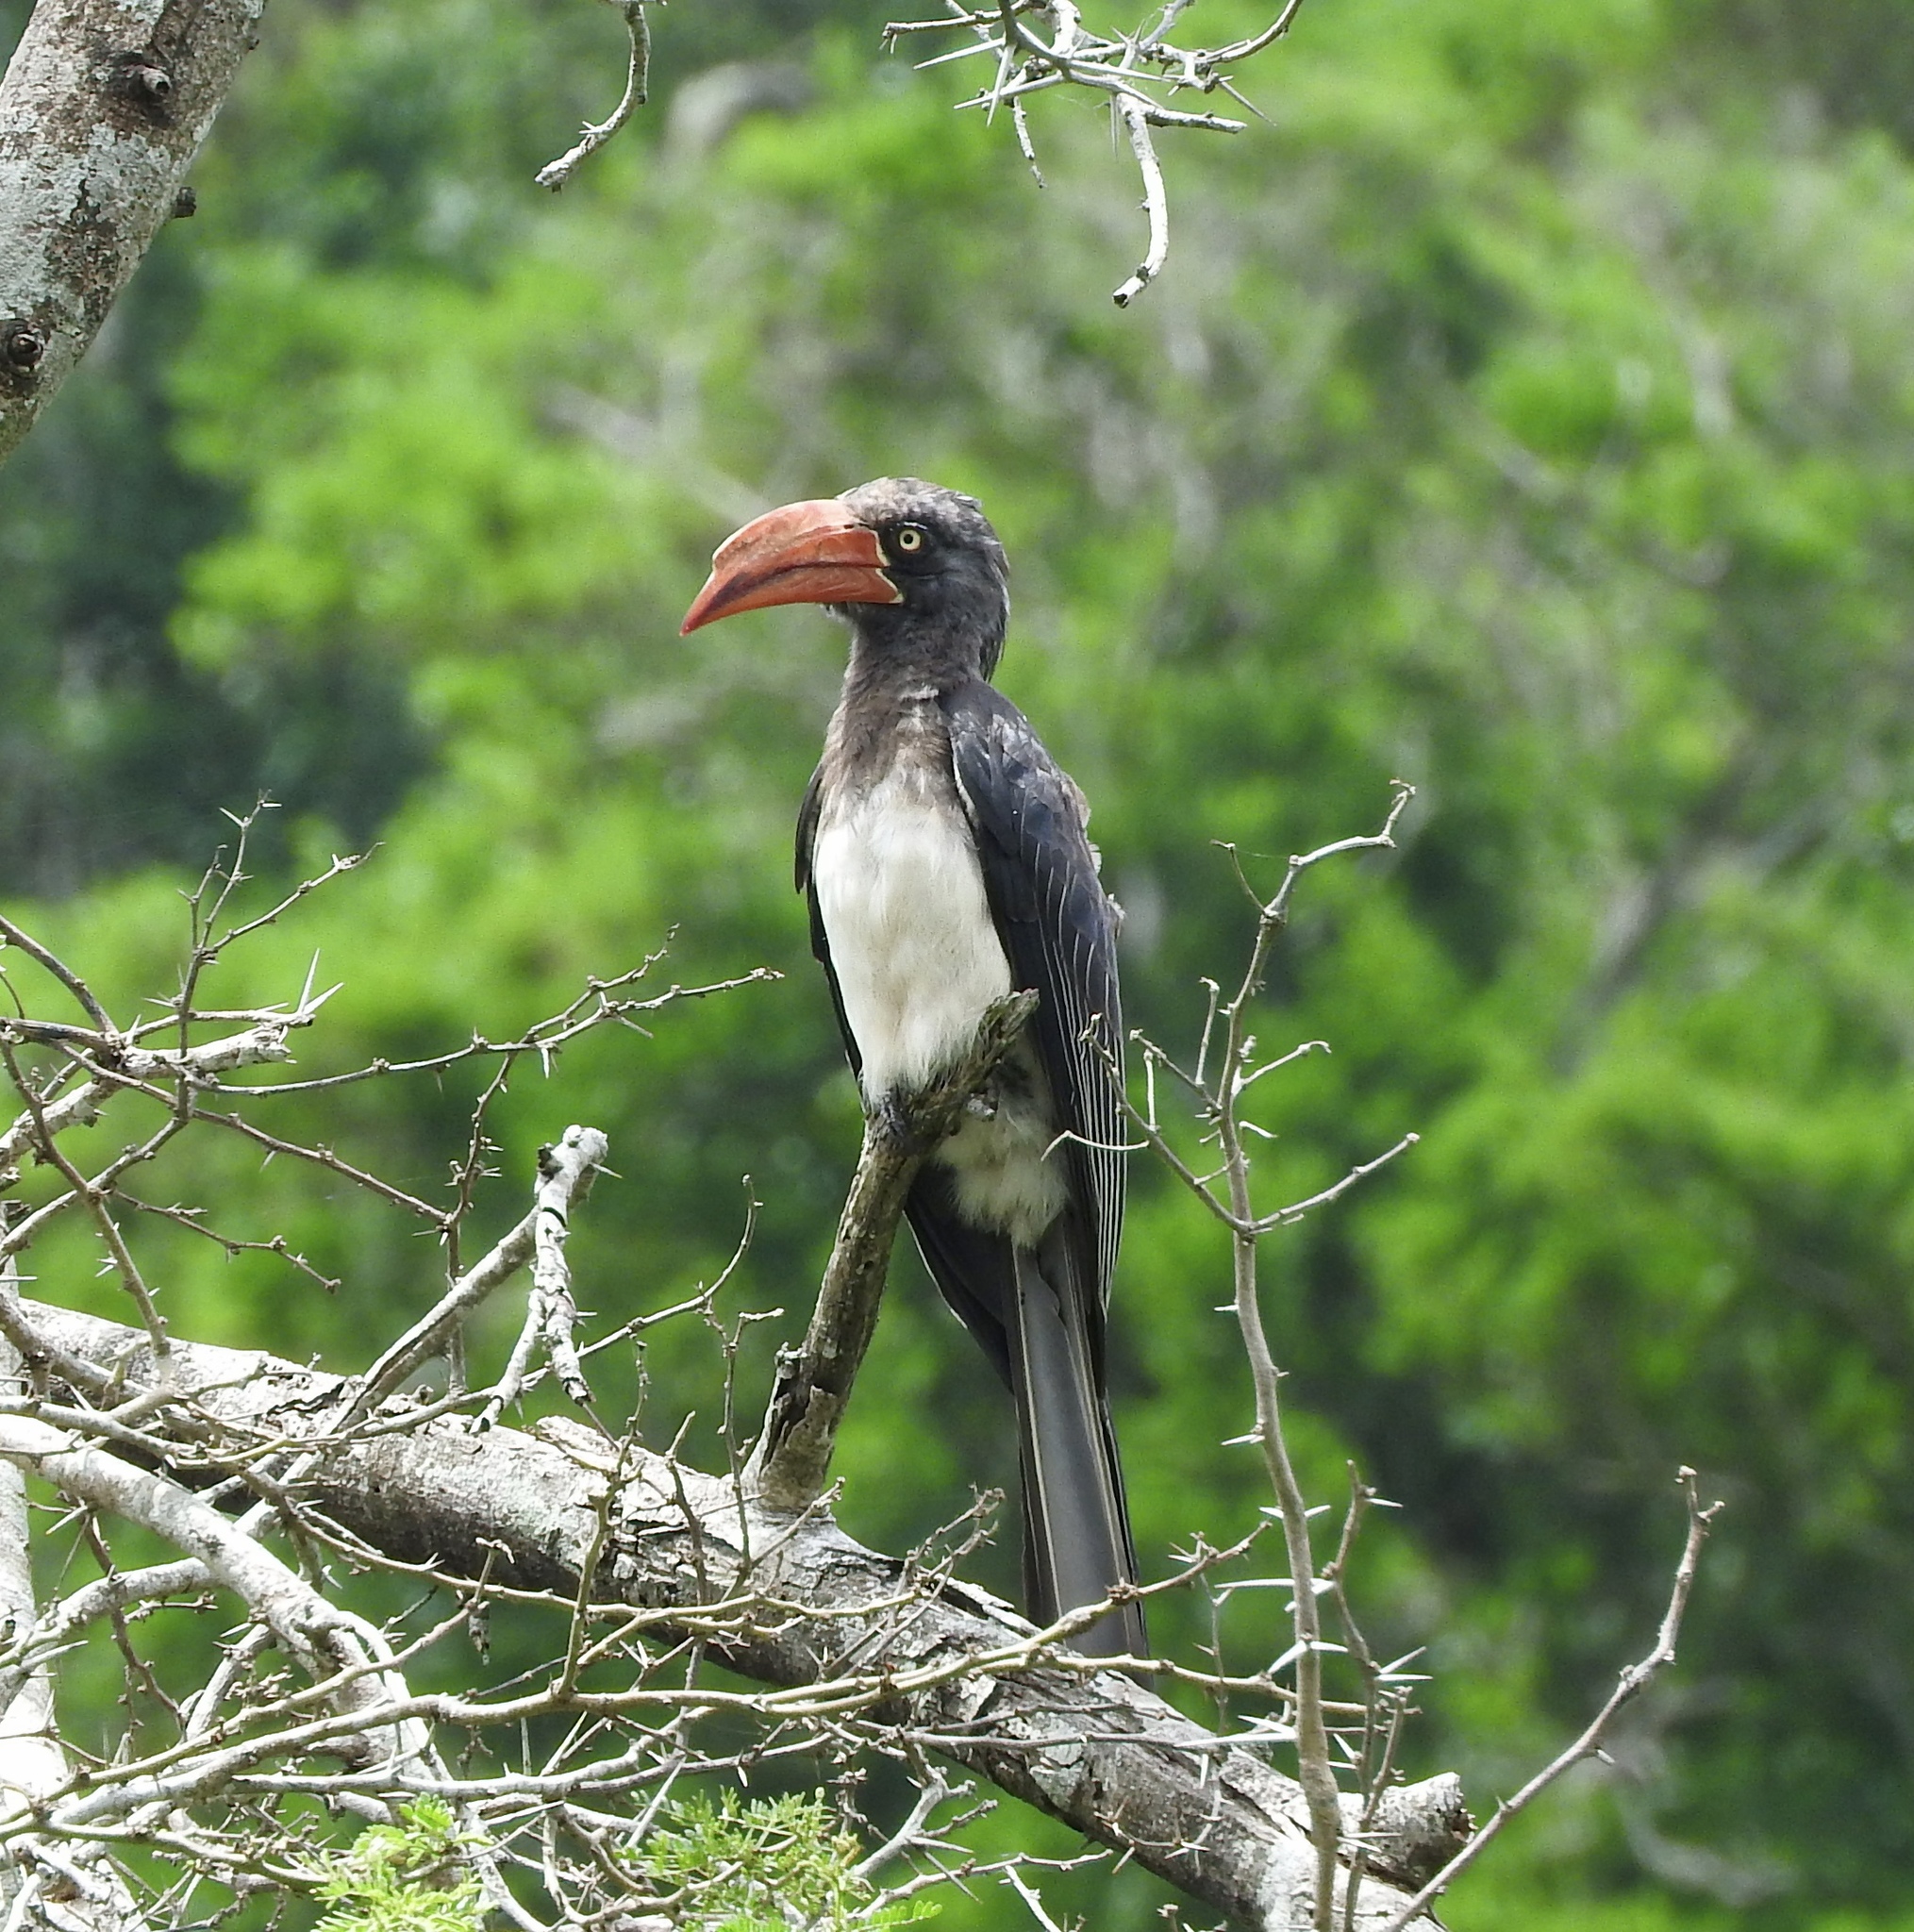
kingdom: Animalia
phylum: Chordata
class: Aves
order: Bucerotiformes
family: Bucerotidae
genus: Lophoceros
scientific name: Lophoceros alboterminatus
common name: Crowned hornbill
